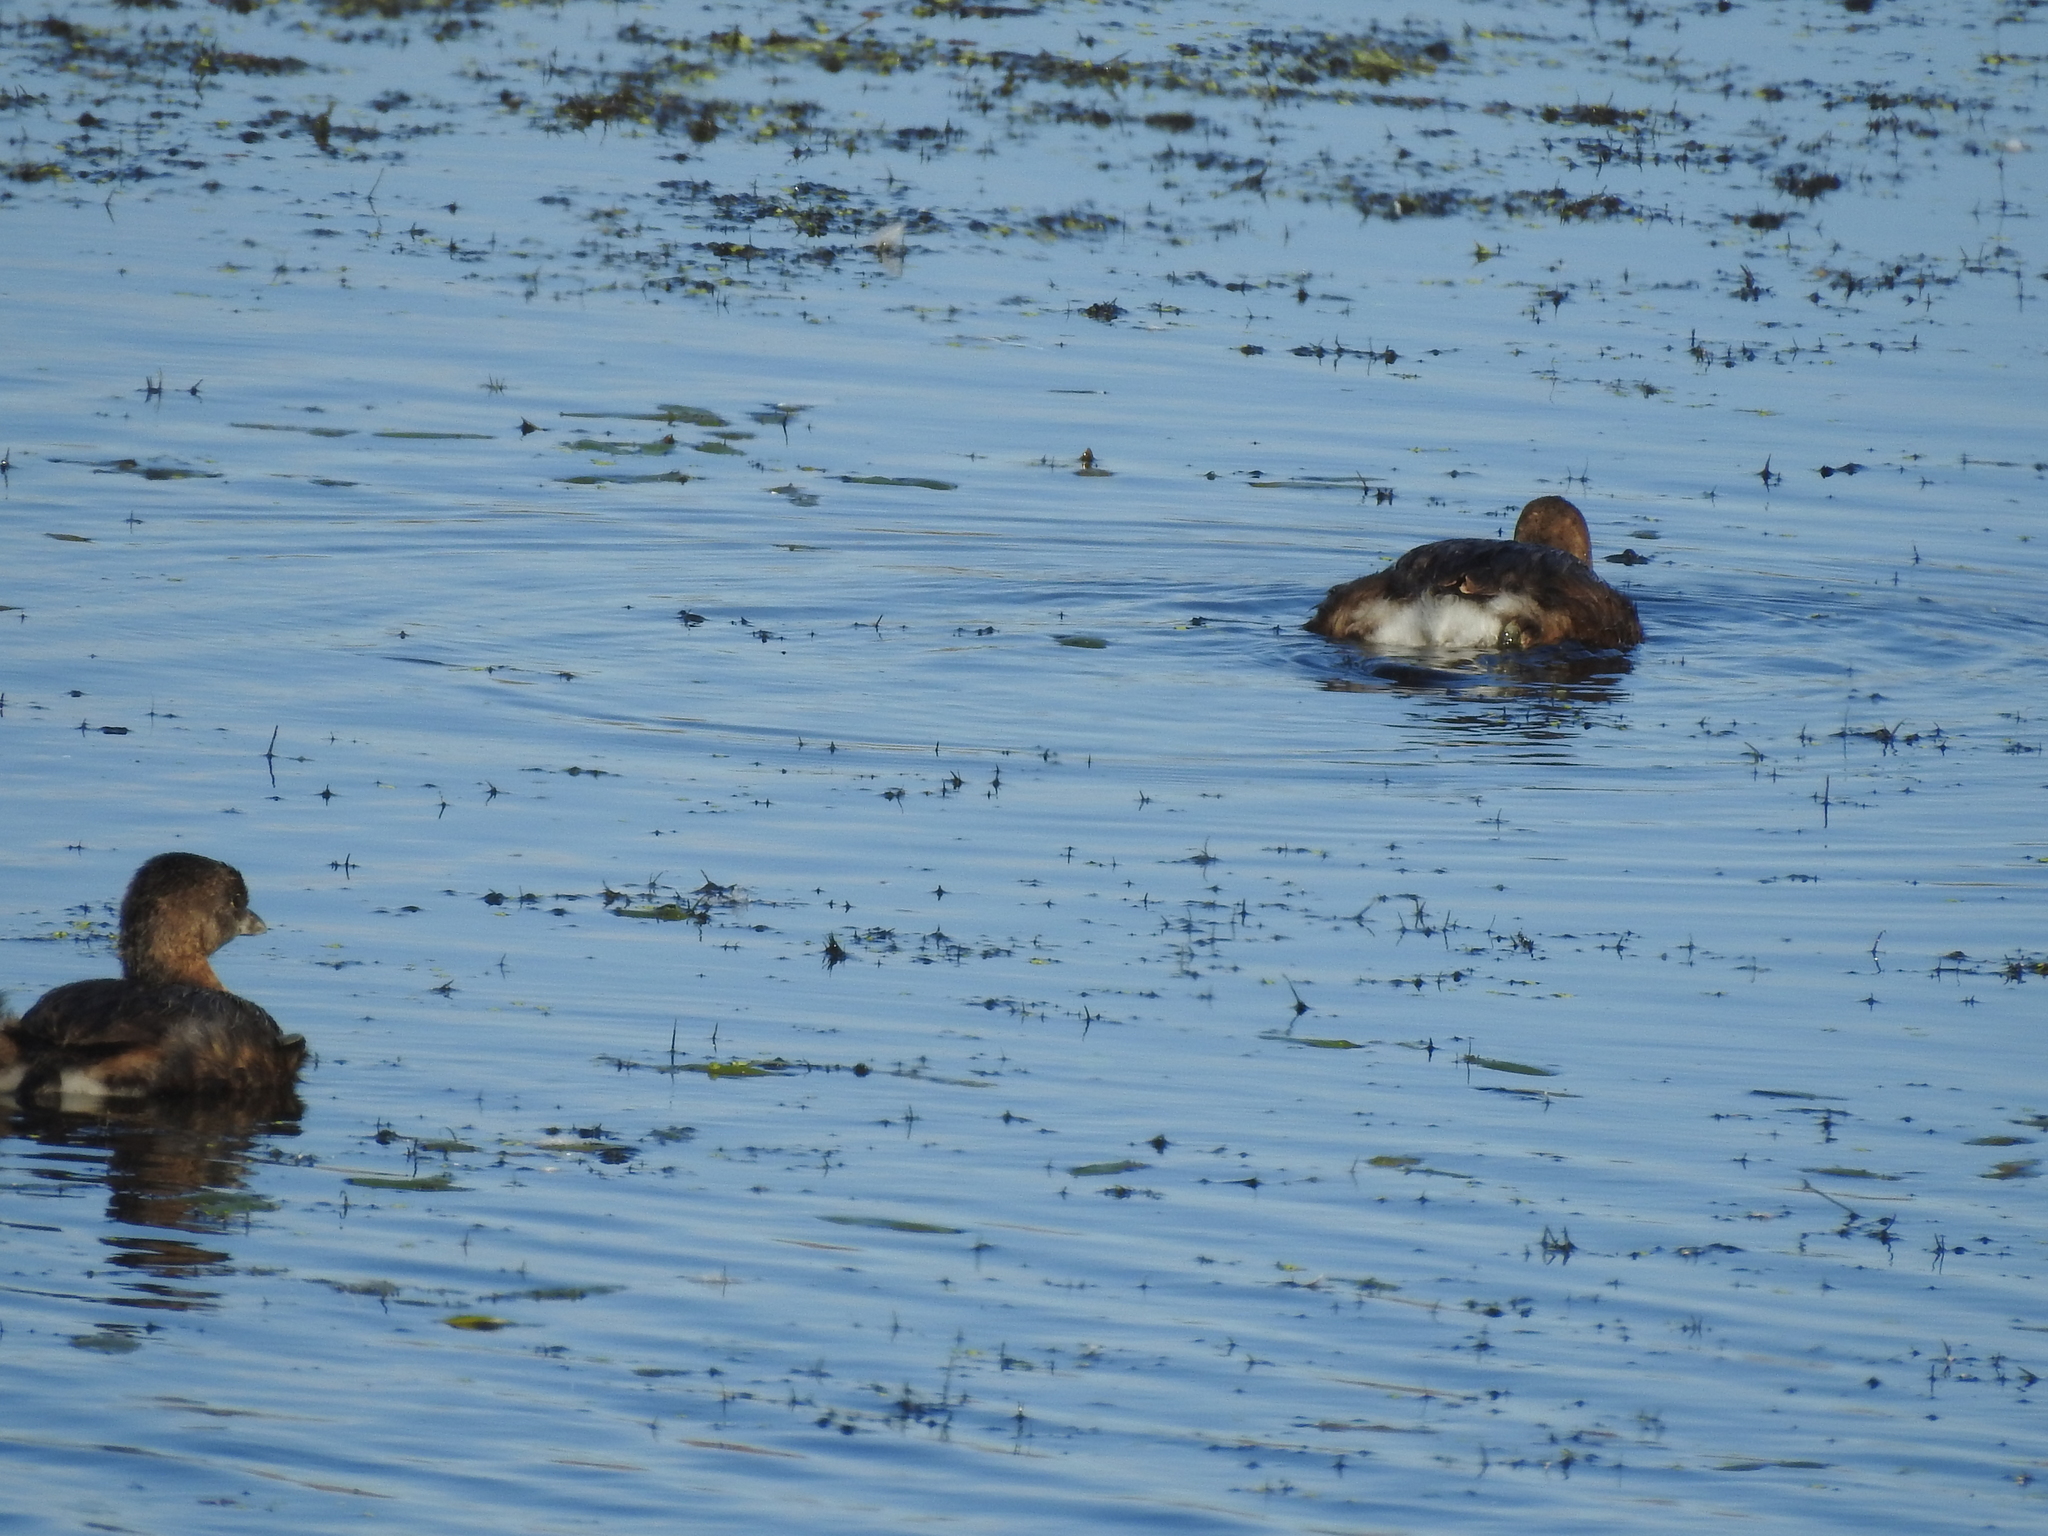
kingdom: Animalia
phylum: Chordata
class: Aves
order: Podicipediformes
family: Podicipedidae
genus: Podilymbus
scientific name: Podilymbus podiceps
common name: Pied-billed grebe
